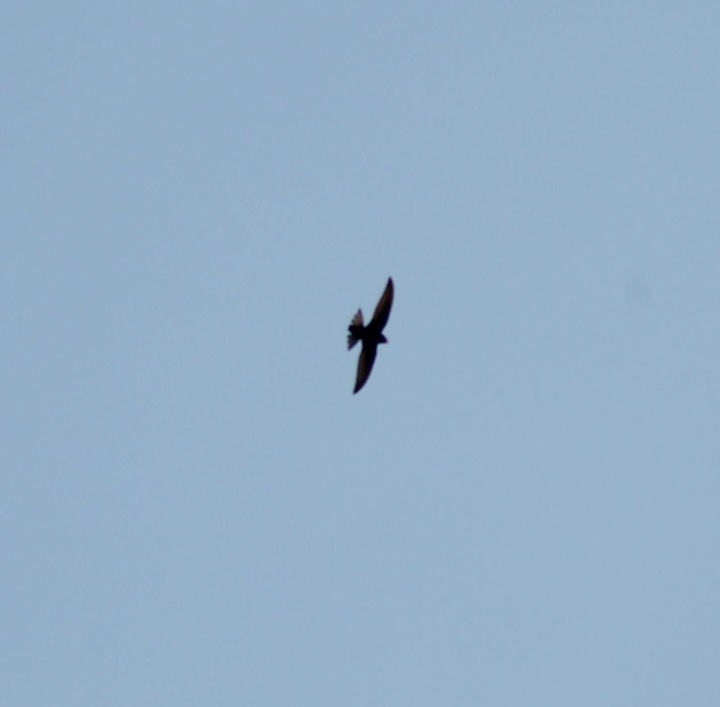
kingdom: Animalia
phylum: Chordata
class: Aves
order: Apodiformes
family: Apodidae
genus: Apus
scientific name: Apus apus
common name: Common swift
